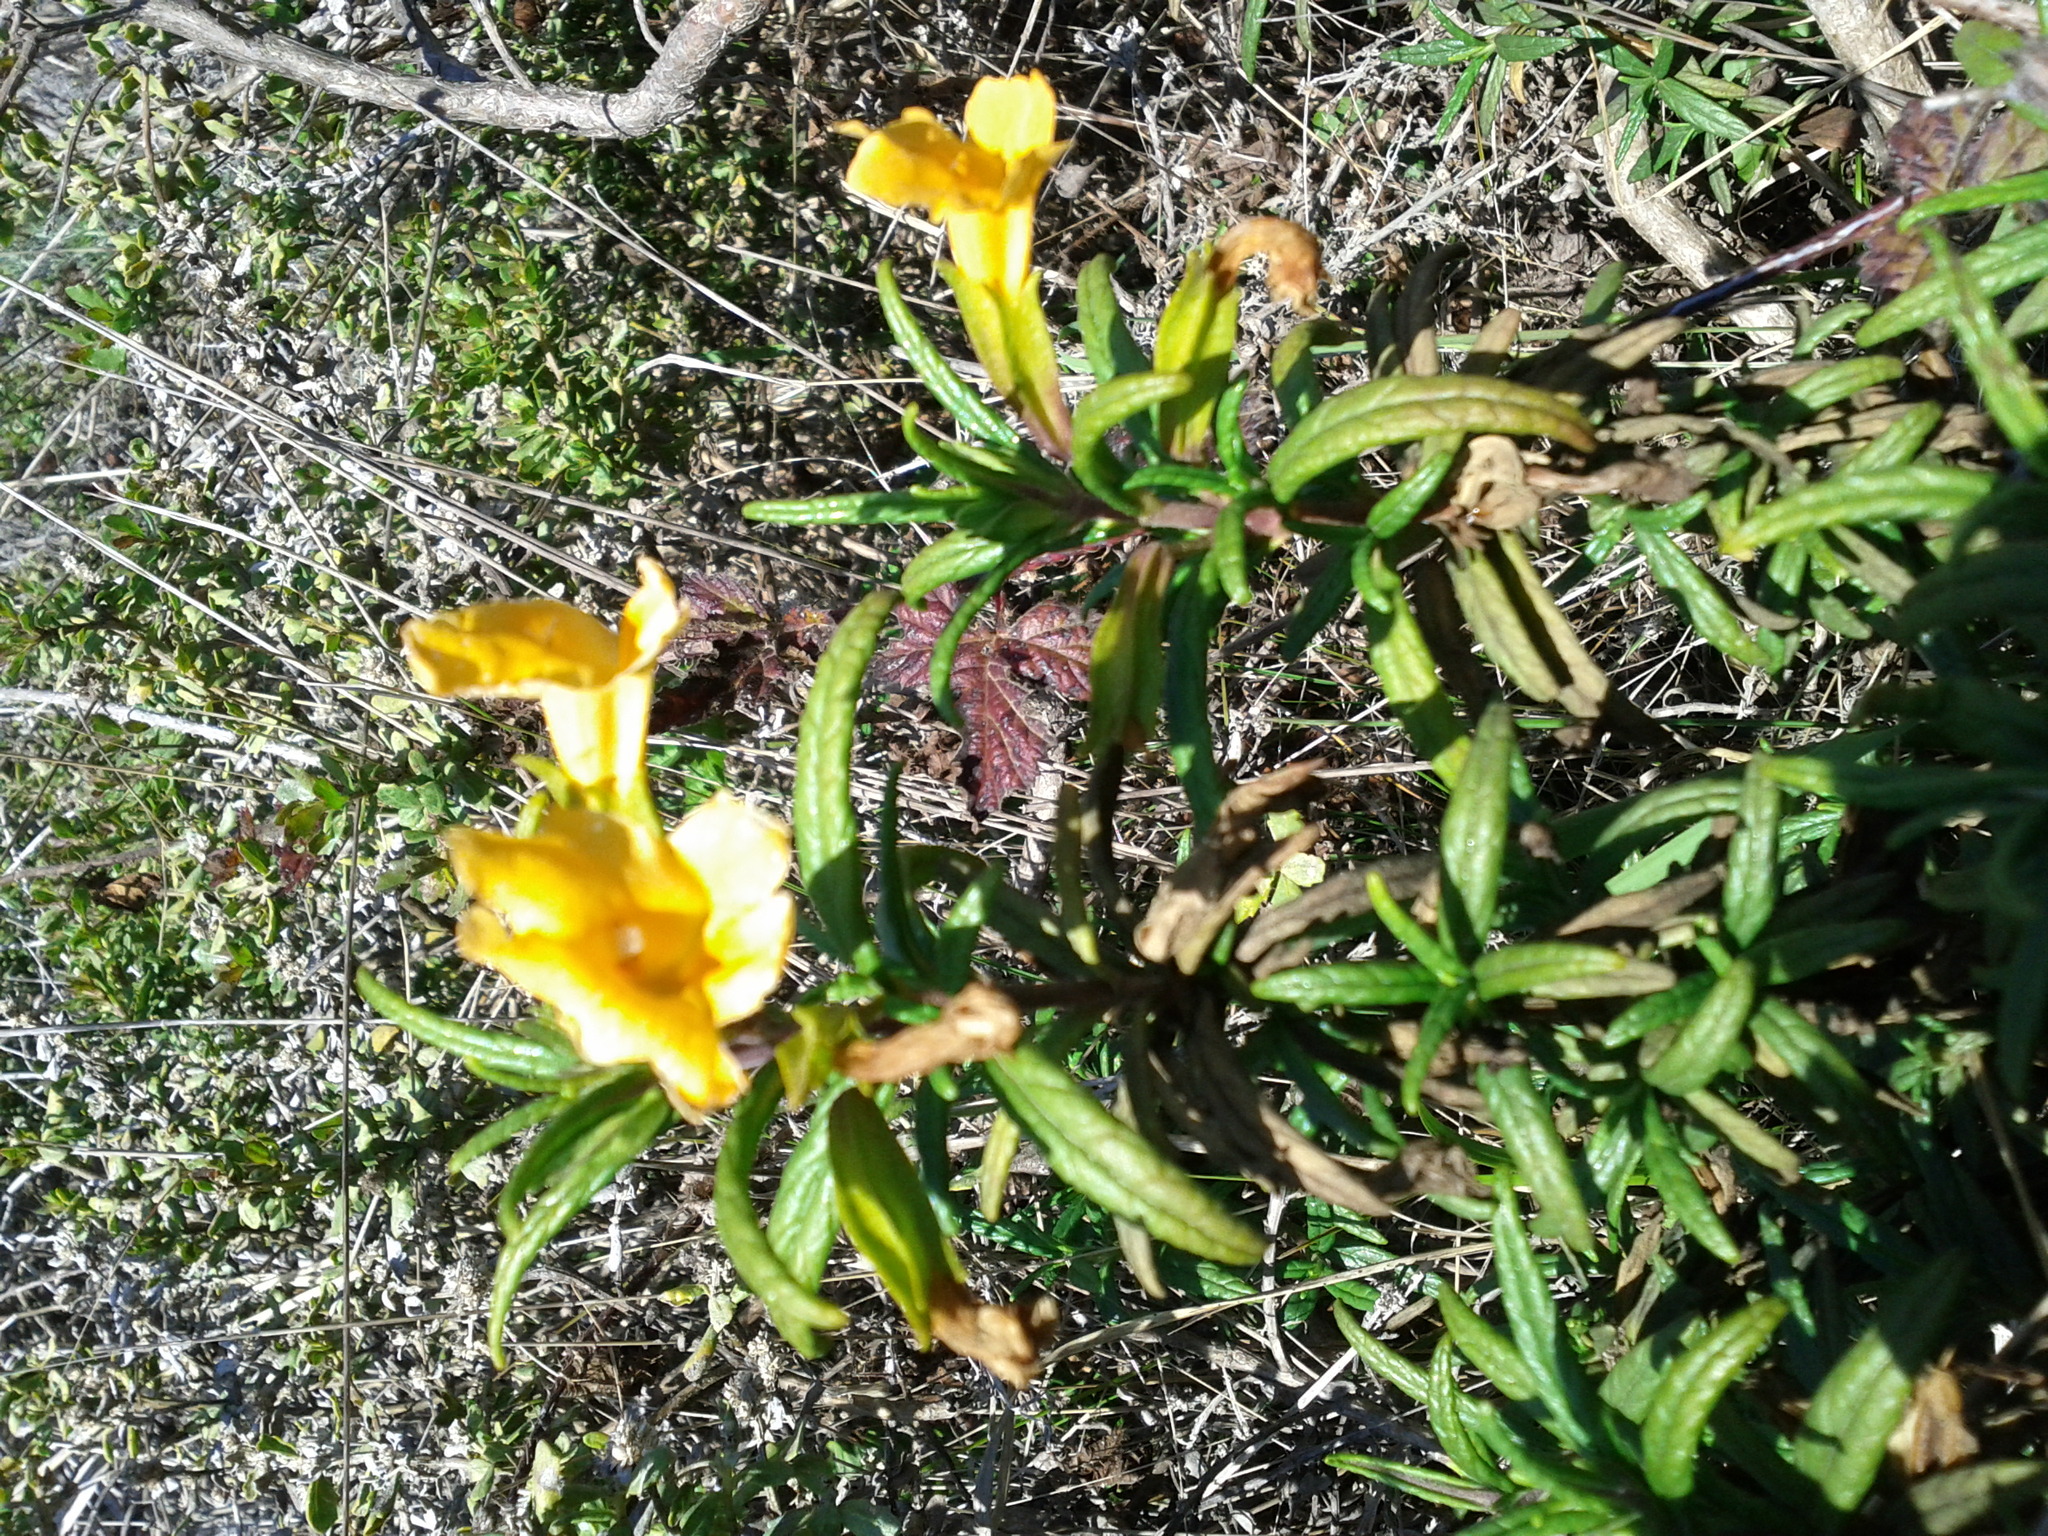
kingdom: Plantae
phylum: Tracheophyta
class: Magnoliopsida
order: Lamiales
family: Phrymaceae
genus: Diplacus
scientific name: Diplacus aurantiacus
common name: Bush monkey-flower
